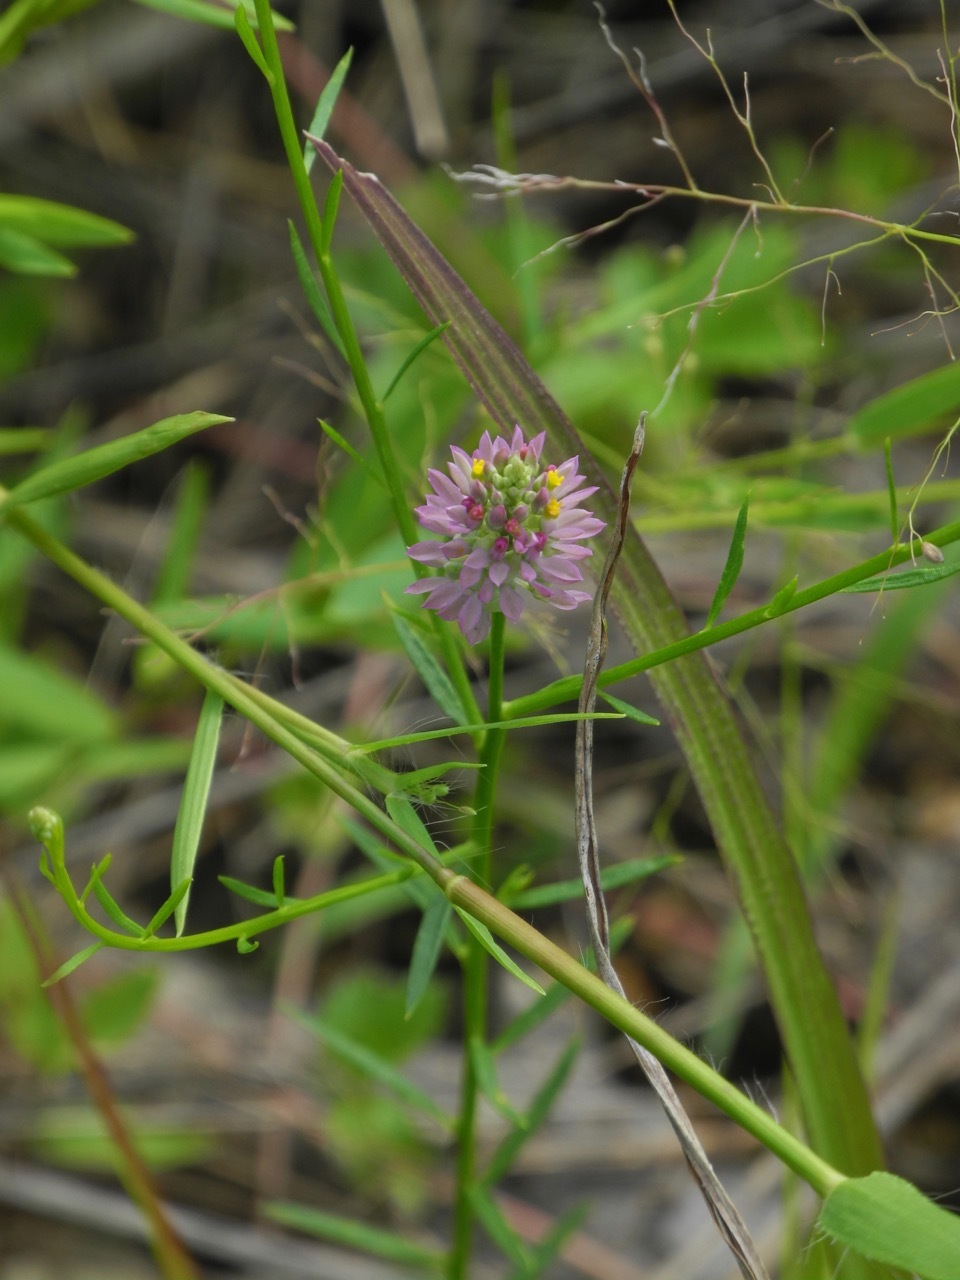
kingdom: Plantae
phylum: Tracheophyta
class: Magnoliopsida
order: Fabales
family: Polygalaceae
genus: Polygala
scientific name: Polygala curtissii
